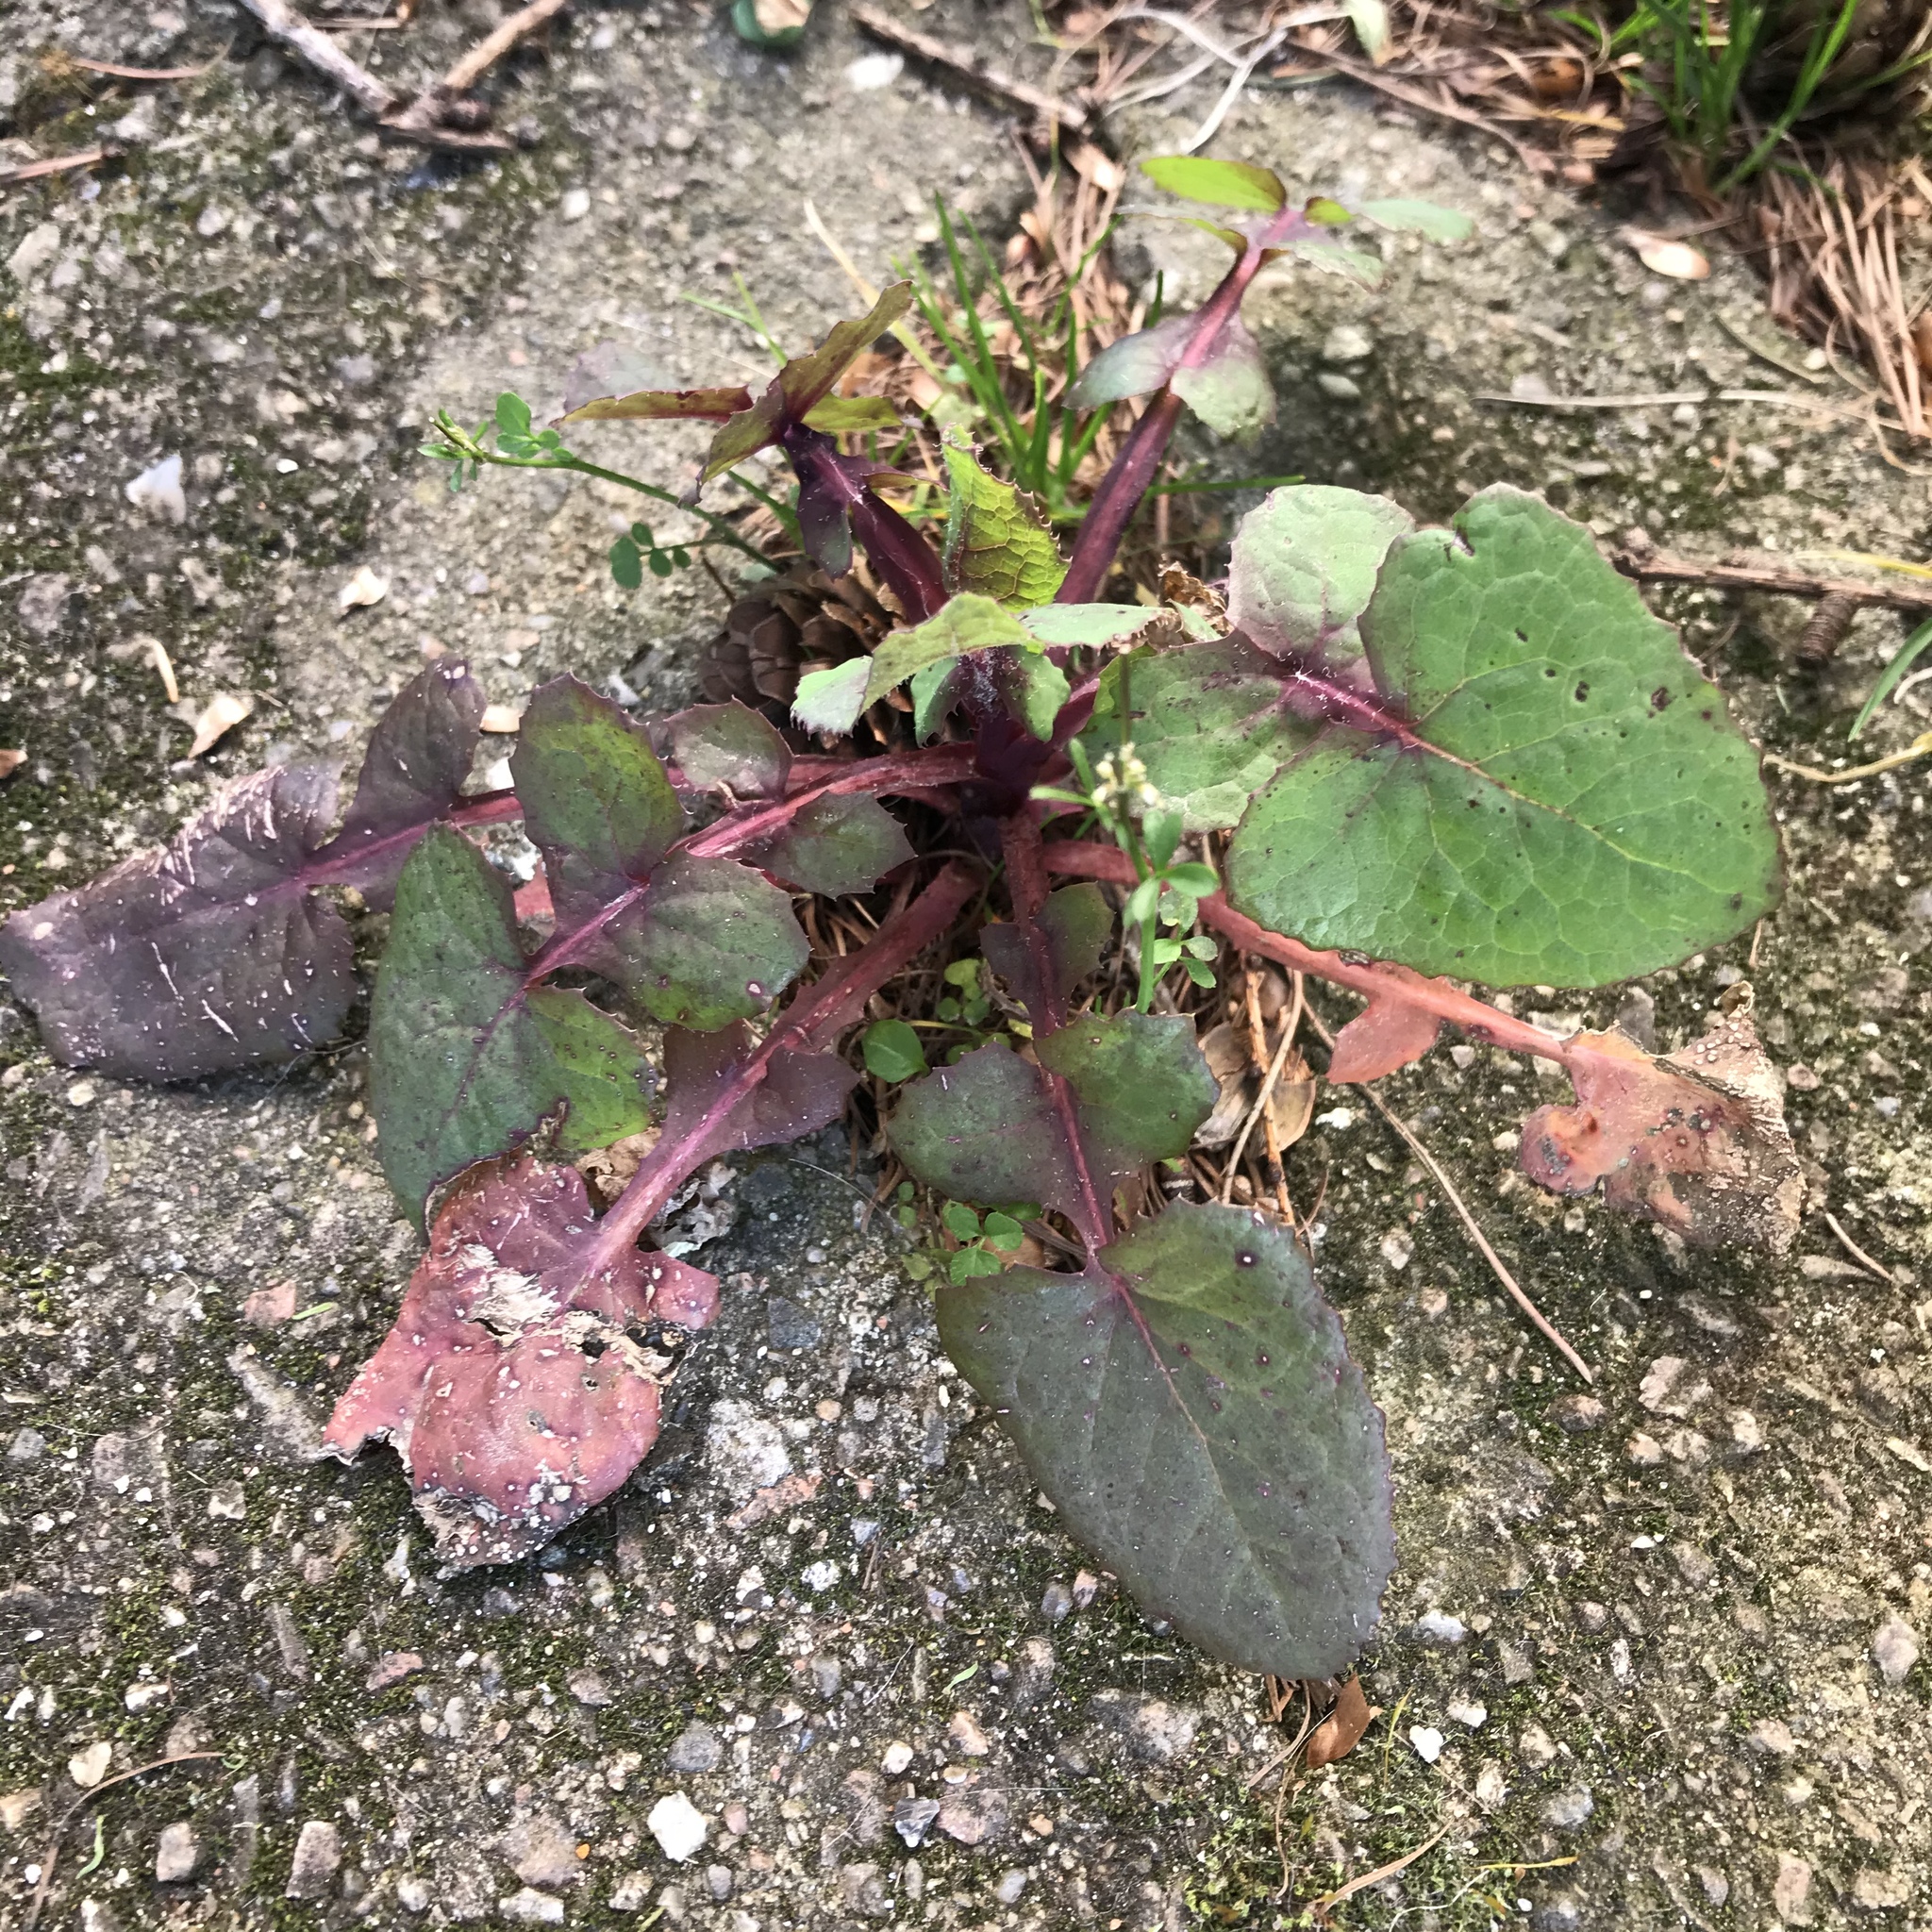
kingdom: Plantae
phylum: Tracheophyta
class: Magnoliopsida
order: Asterales
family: Asteraceae
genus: Sonchus
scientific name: Sonchus oleraceus
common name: Common sowthistle
